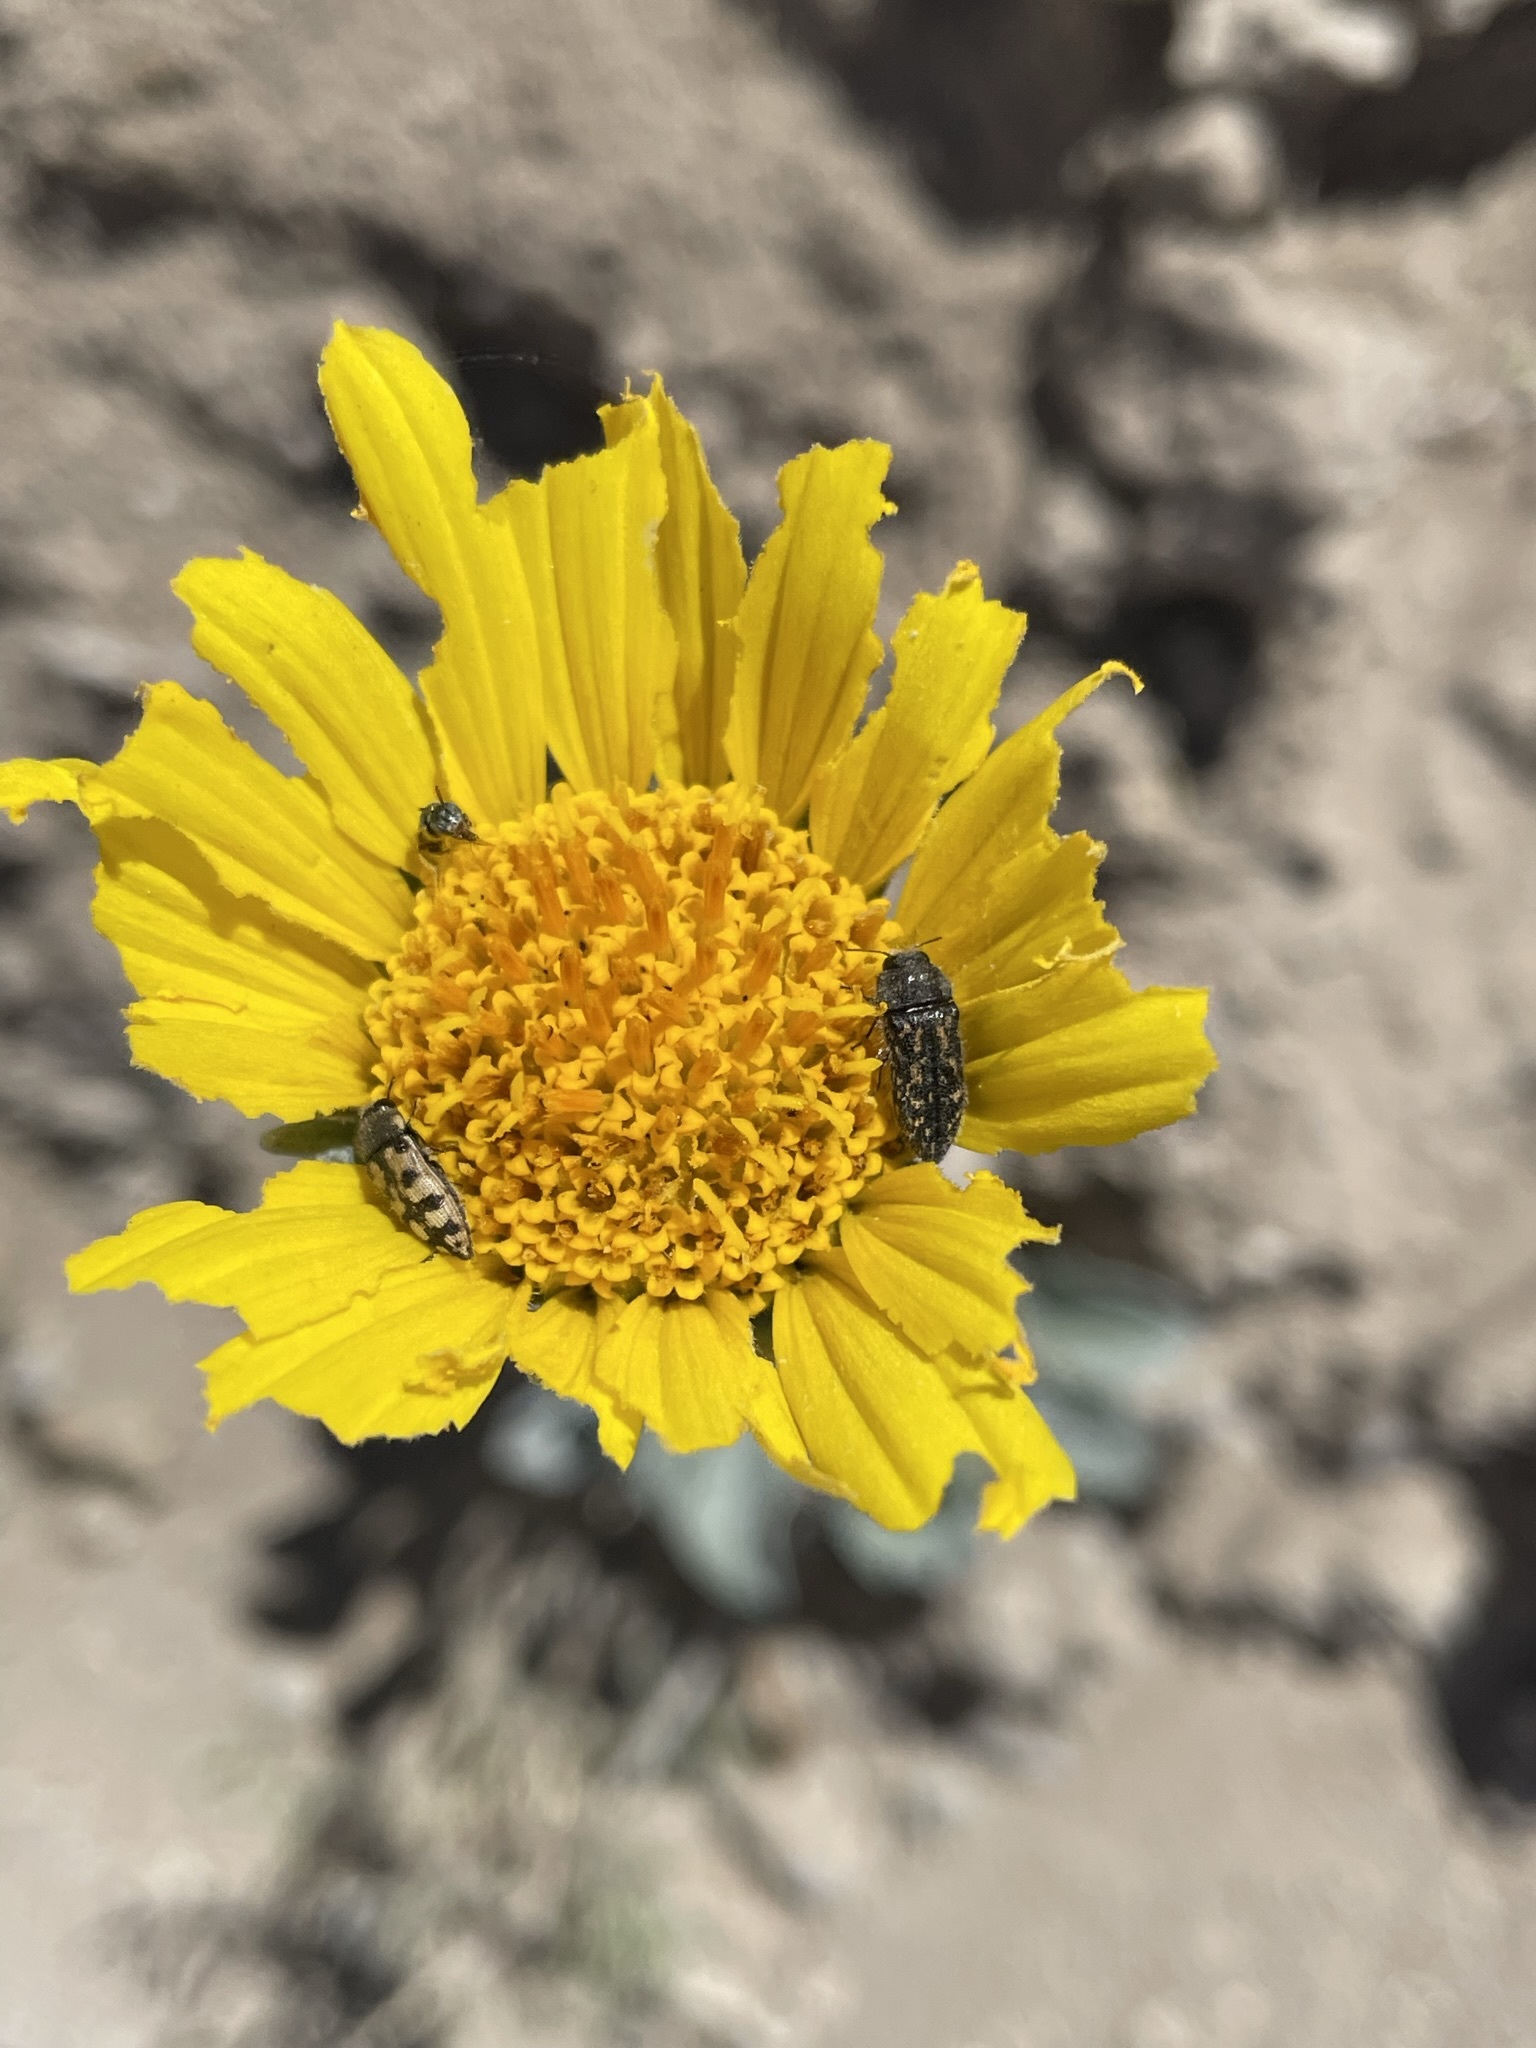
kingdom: Plantae
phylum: Tracheophyta
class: Magnoliopsida
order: Asterales
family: Asteraceae
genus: Enceliopsis
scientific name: Enceliopsis nudicaulis
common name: Naked-stem daisy
